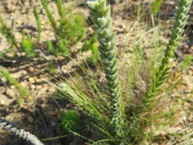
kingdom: Plantae
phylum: Tracheophyta
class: Magnoliopsida
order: Malvales
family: Thymelaeaceae
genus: Struthiola
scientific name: Struthiola tomentosa
